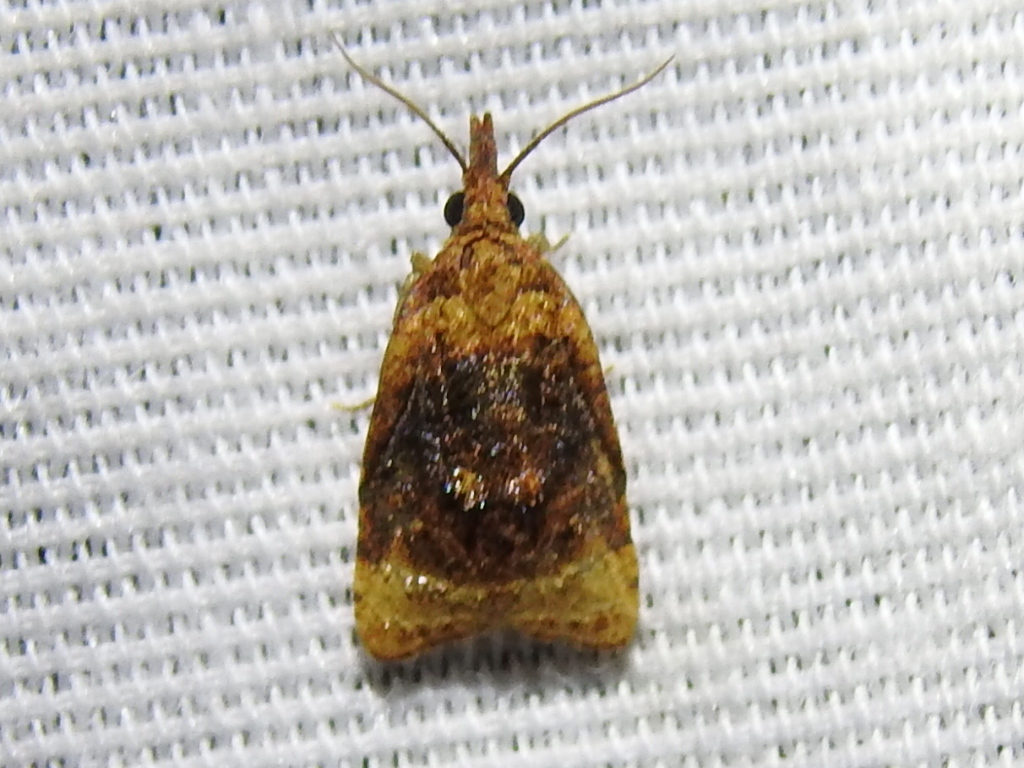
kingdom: Animalia
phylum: Arthropoda
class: Insecta
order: Lepidoptera
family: Tortricidae
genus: Platynota
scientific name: Platynota flavedana
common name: Black-shaded platynota moth
